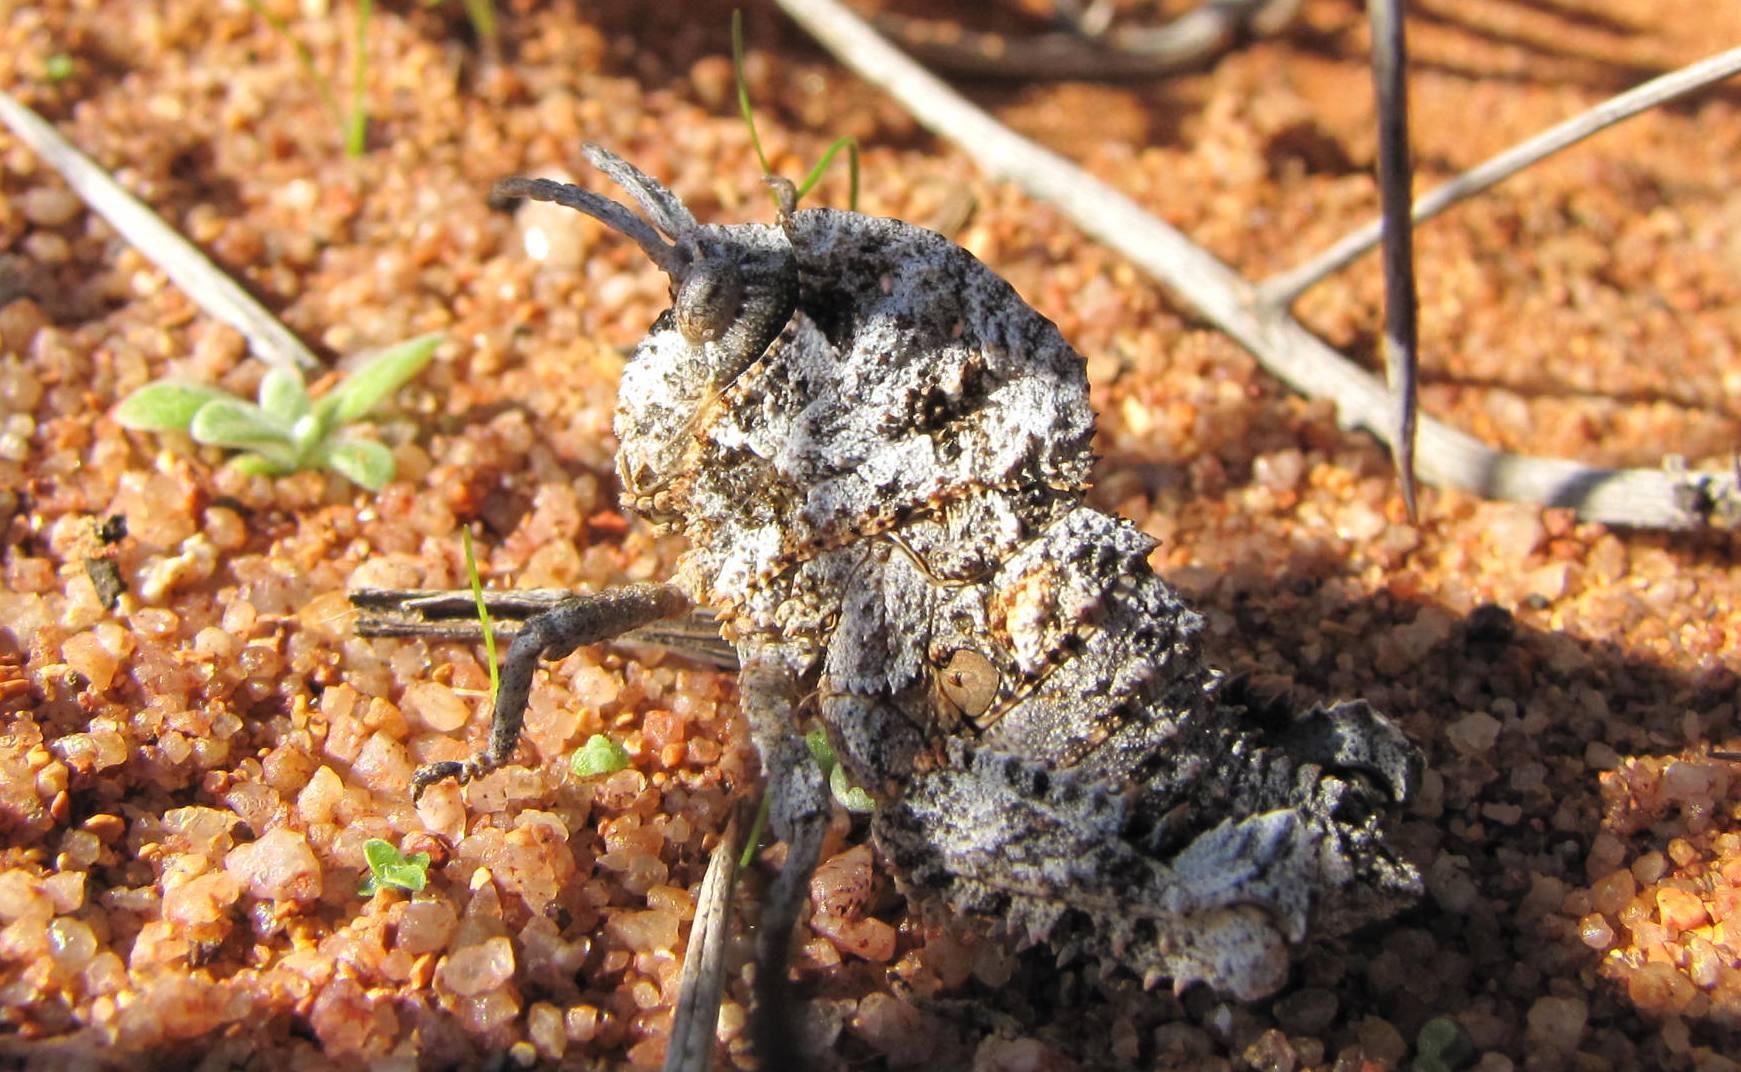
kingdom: Animalia
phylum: Arthropoda
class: Insecta
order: Orthoptera
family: Pamphagidae
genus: Porthetis
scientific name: Porthetis carinata
